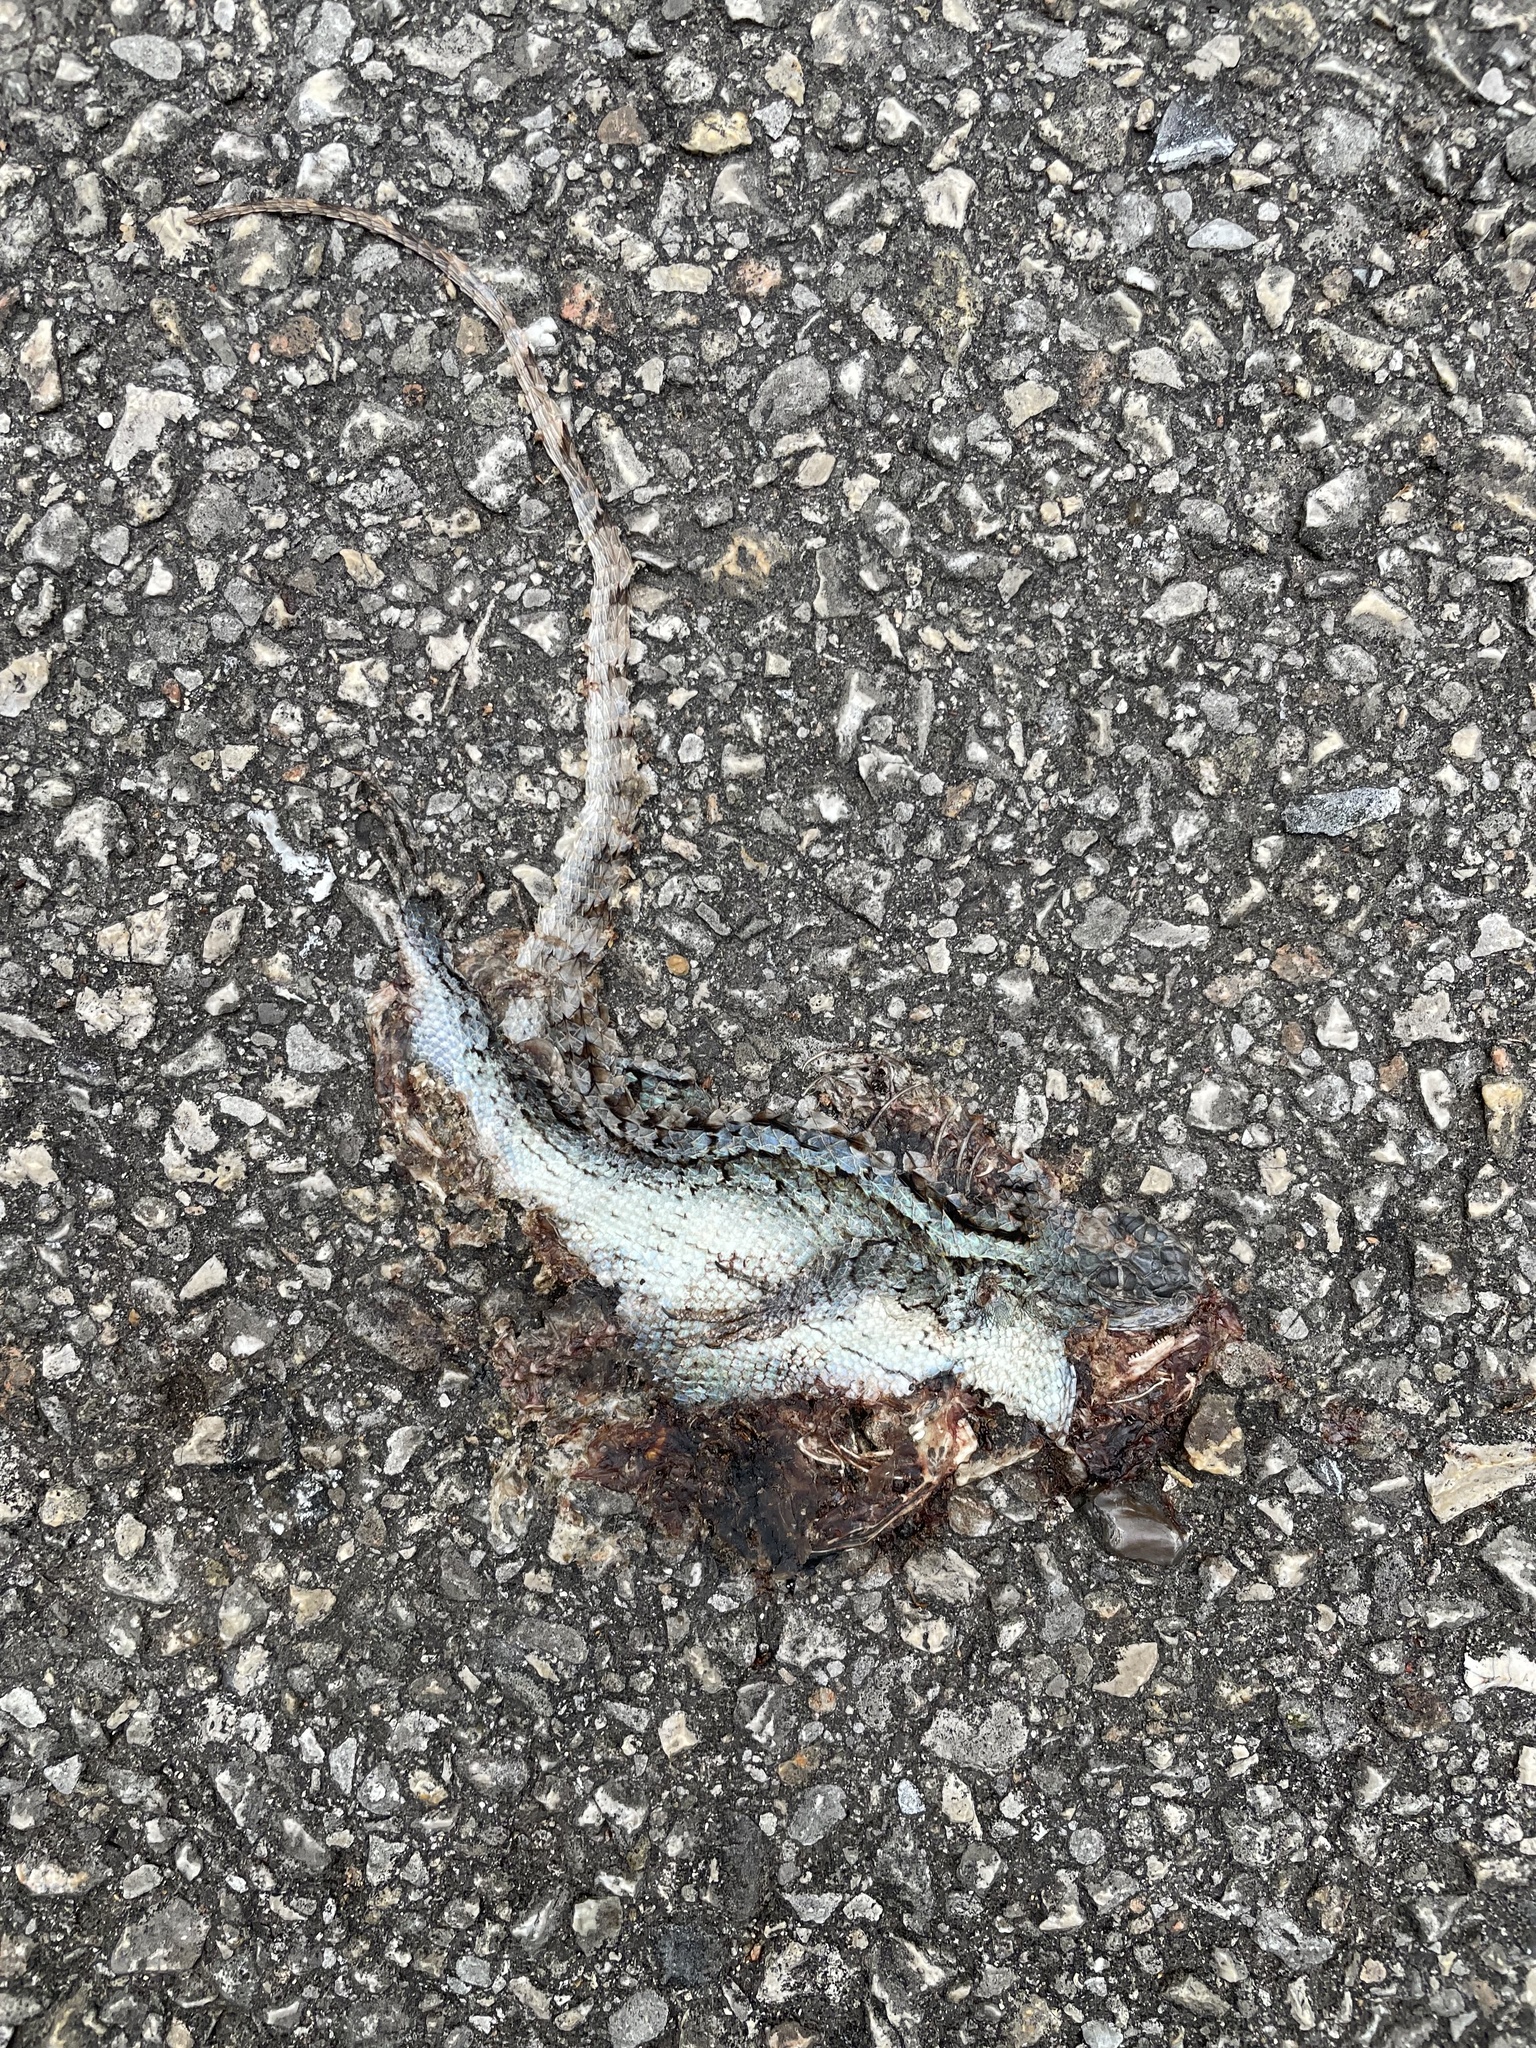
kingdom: Animalia
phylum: Chordata
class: Squamata
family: Phrynosomatidae
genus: Sceloporus
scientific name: Sceloporus olivaceus
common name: Texas spiny lizard
